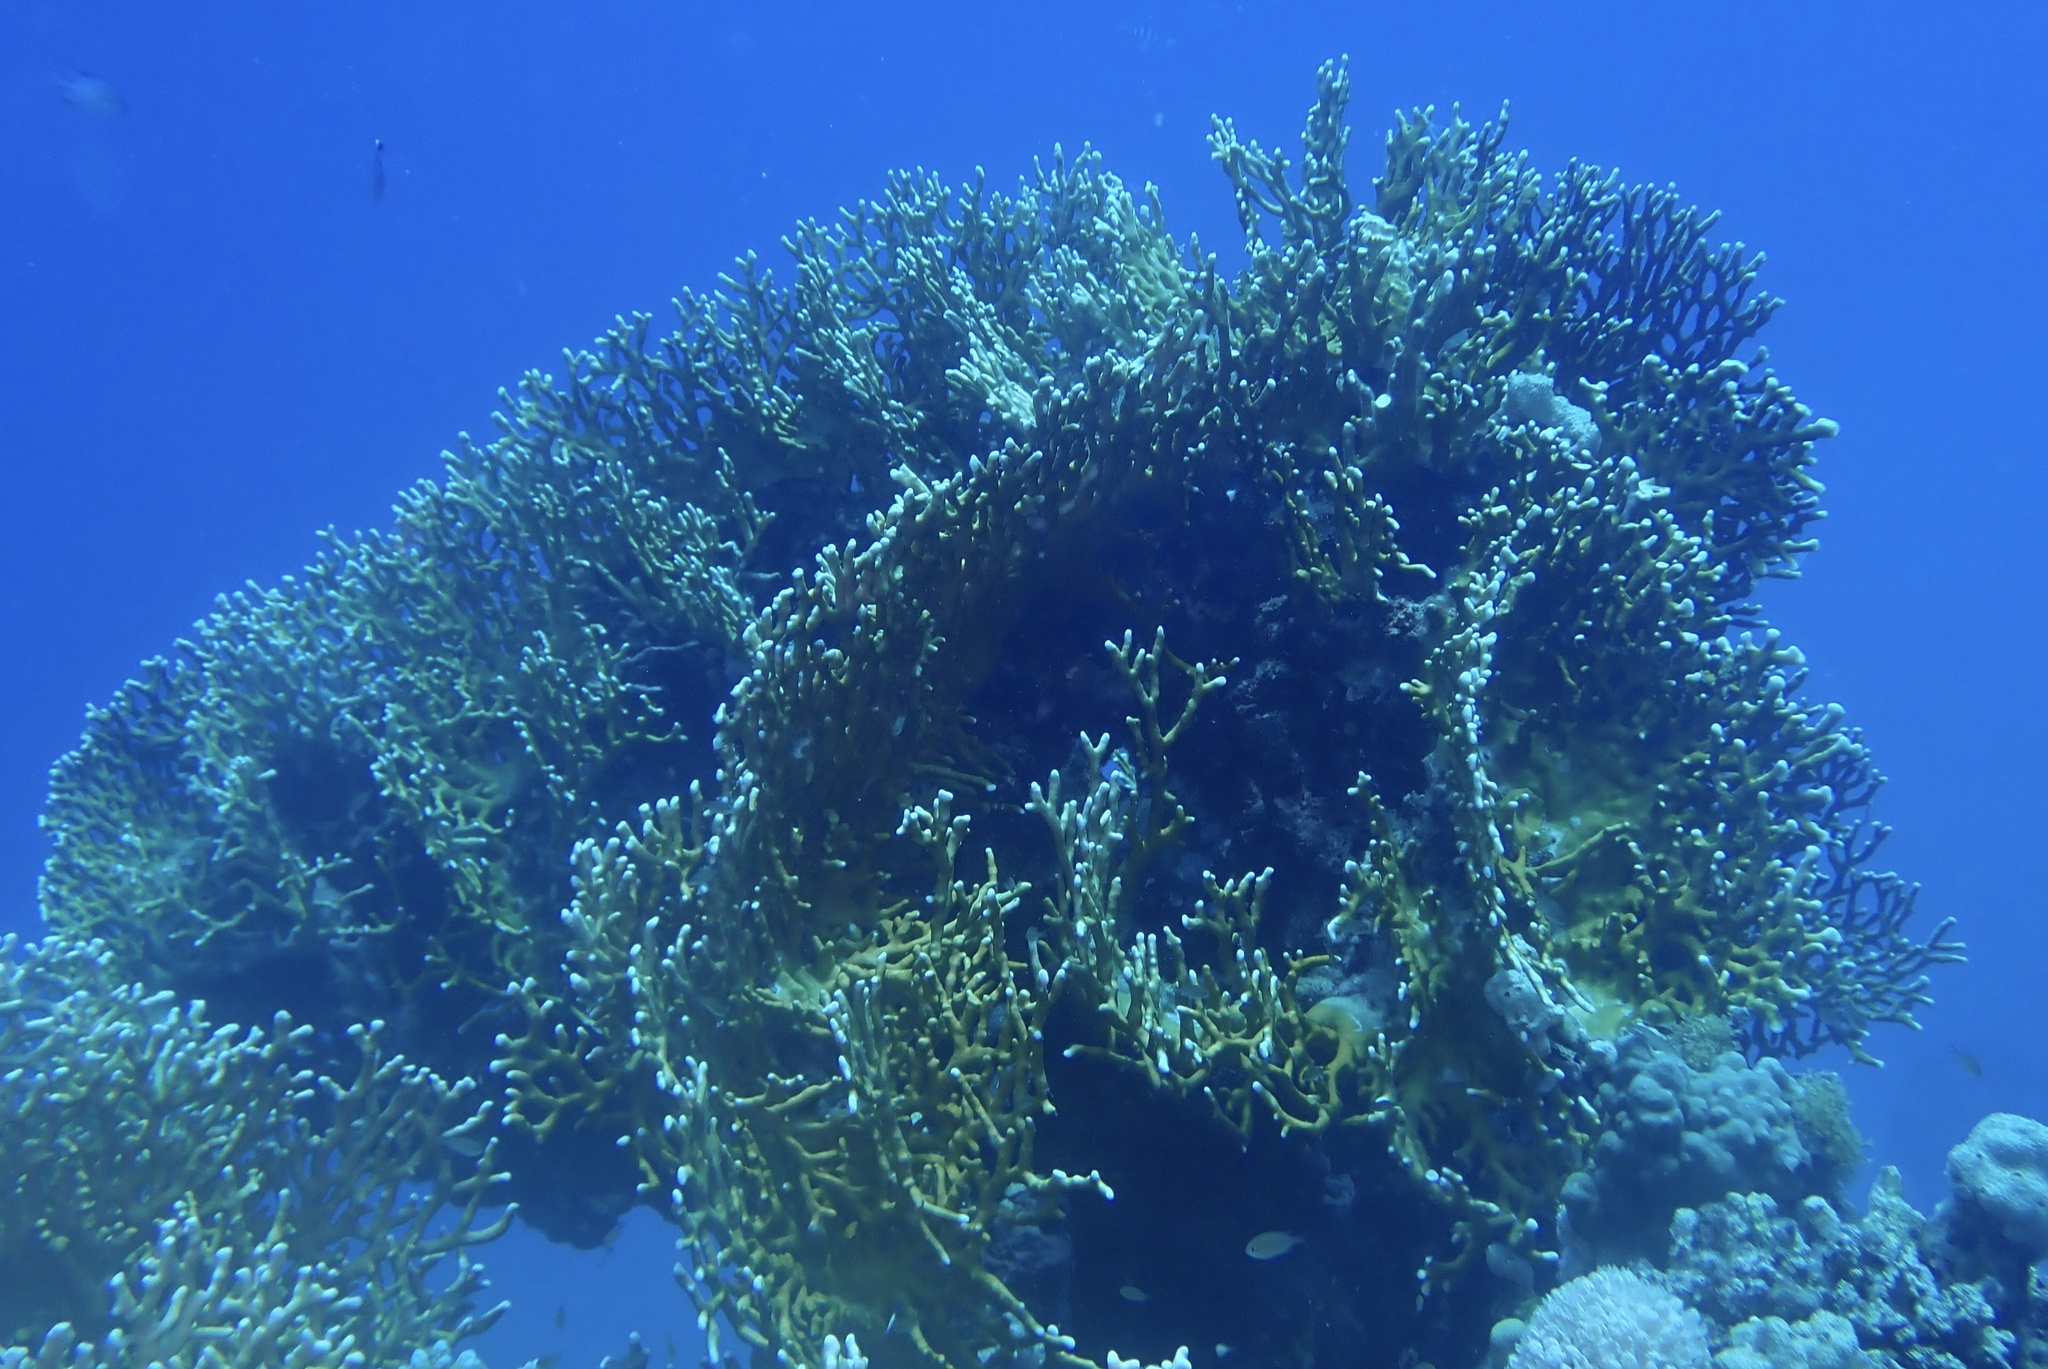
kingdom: Animalia
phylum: Cnidaria
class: Hydrozoa
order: Anthoathecata
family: Milleporidae
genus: Millepora
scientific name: Millepora dichotoma
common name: Ramified fire coral
